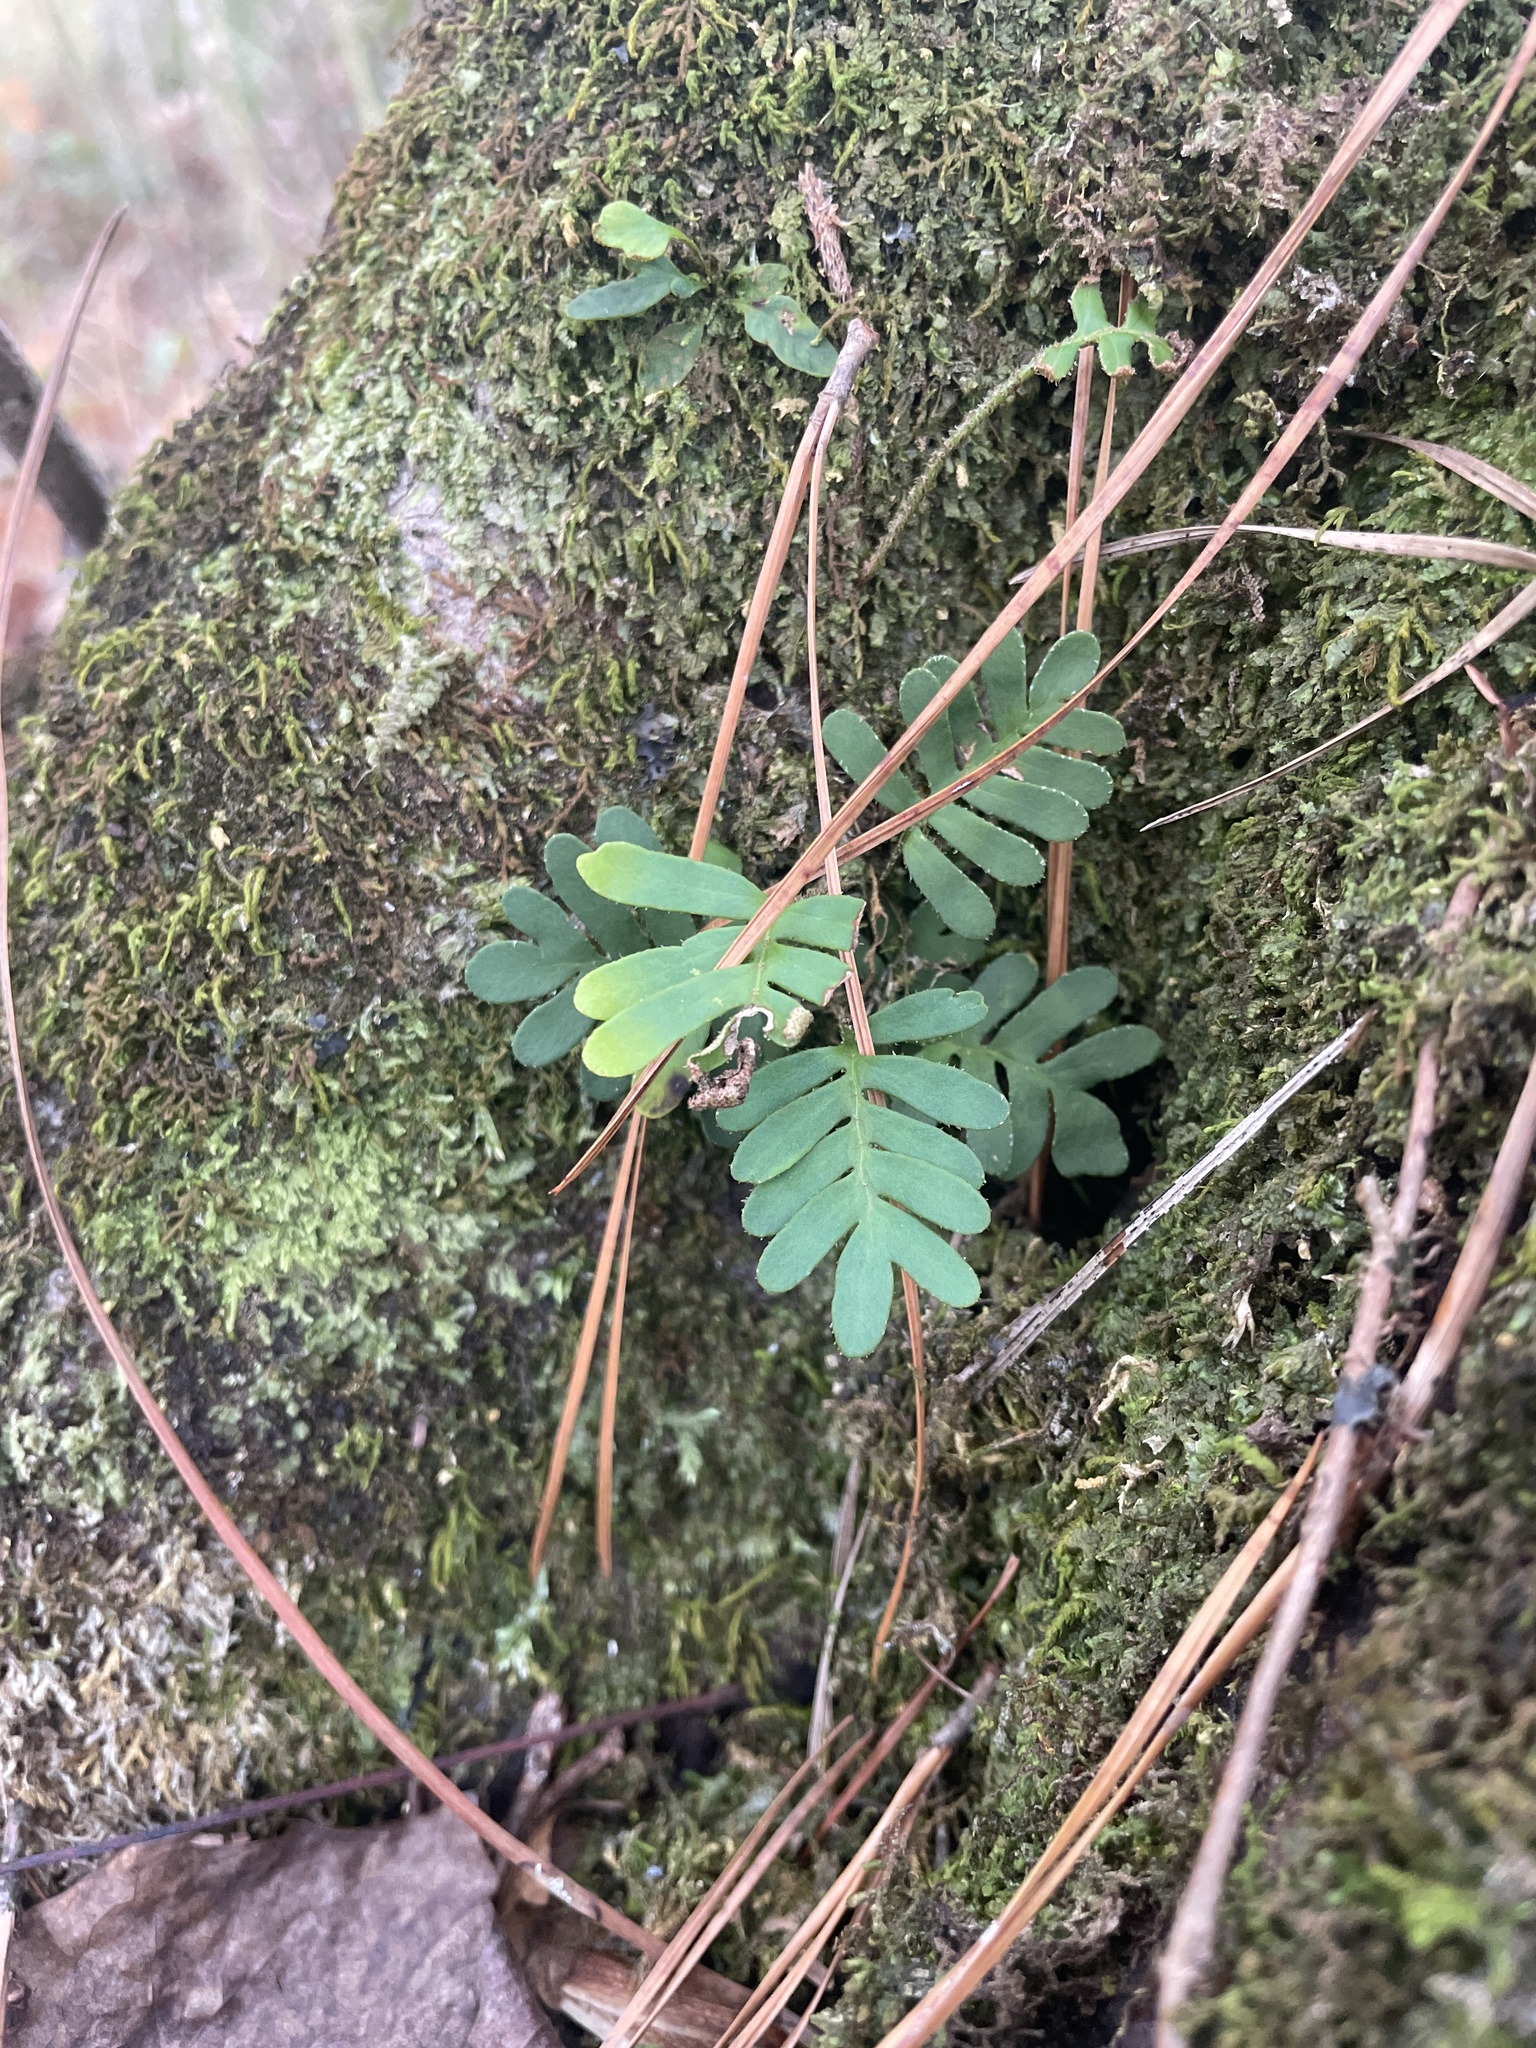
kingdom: Plantae
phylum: Tracheophyta
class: Polypodiopsida
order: Polypodiales
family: Polypodiaceae
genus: Pleopeltis
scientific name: Pleopeltis michauxiana
